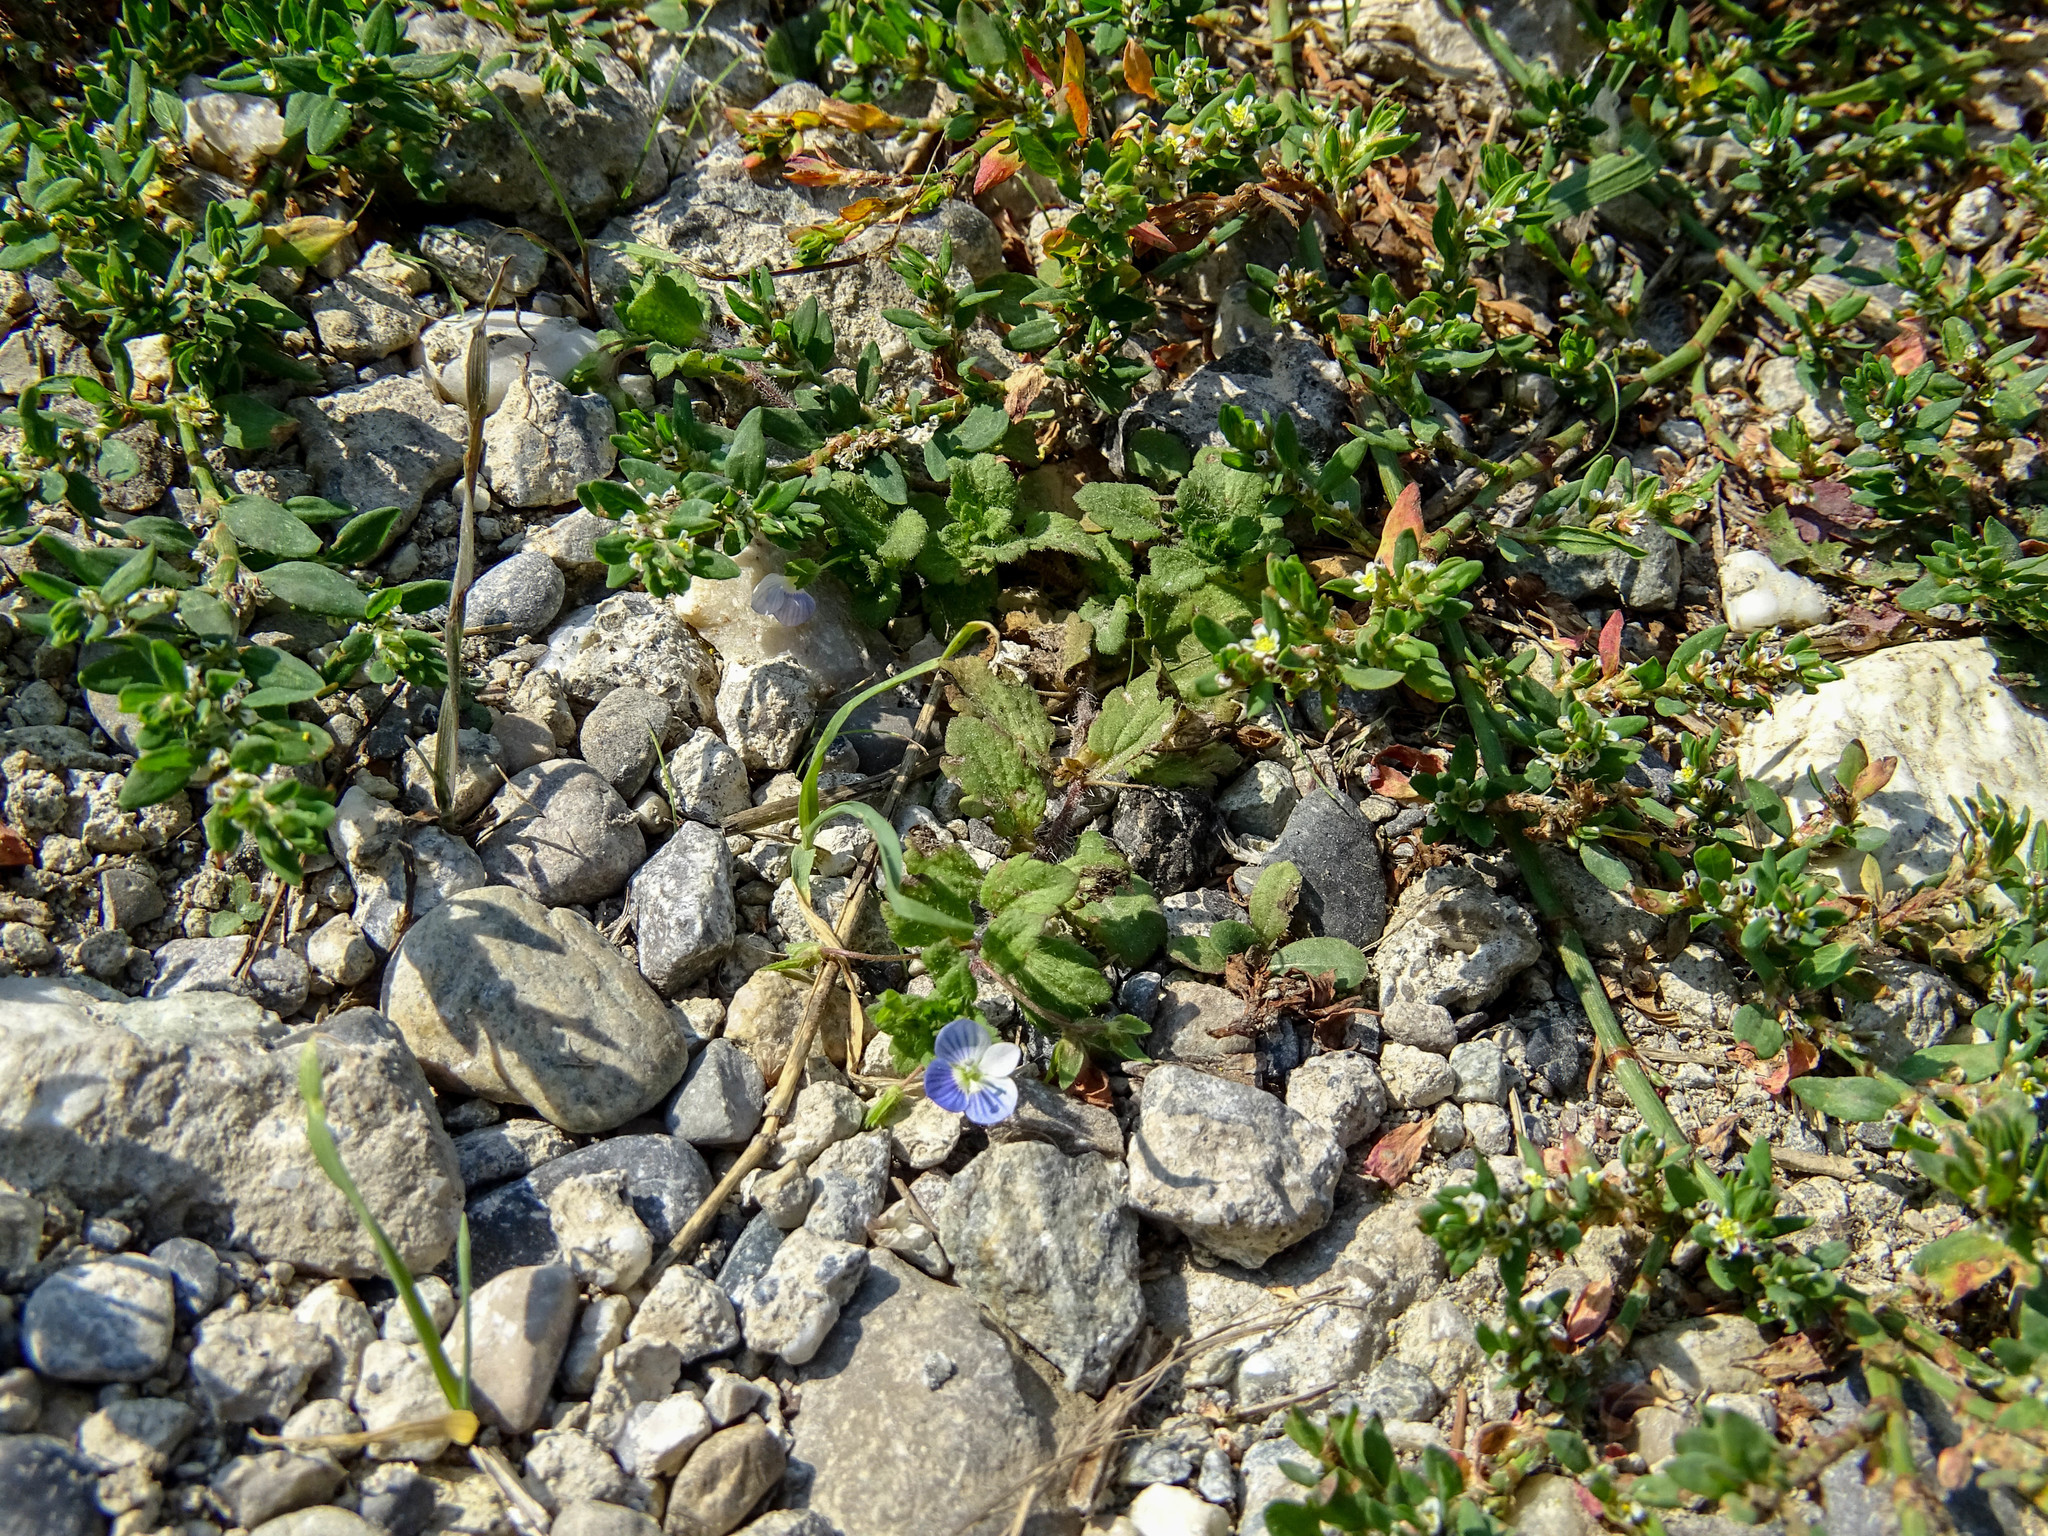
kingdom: Plantae
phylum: Tracheophyta
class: Magnoliopsida
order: Lamiales
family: Plantaginaceae
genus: Veronica
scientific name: Veronica persica
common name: Common field-speedwell
